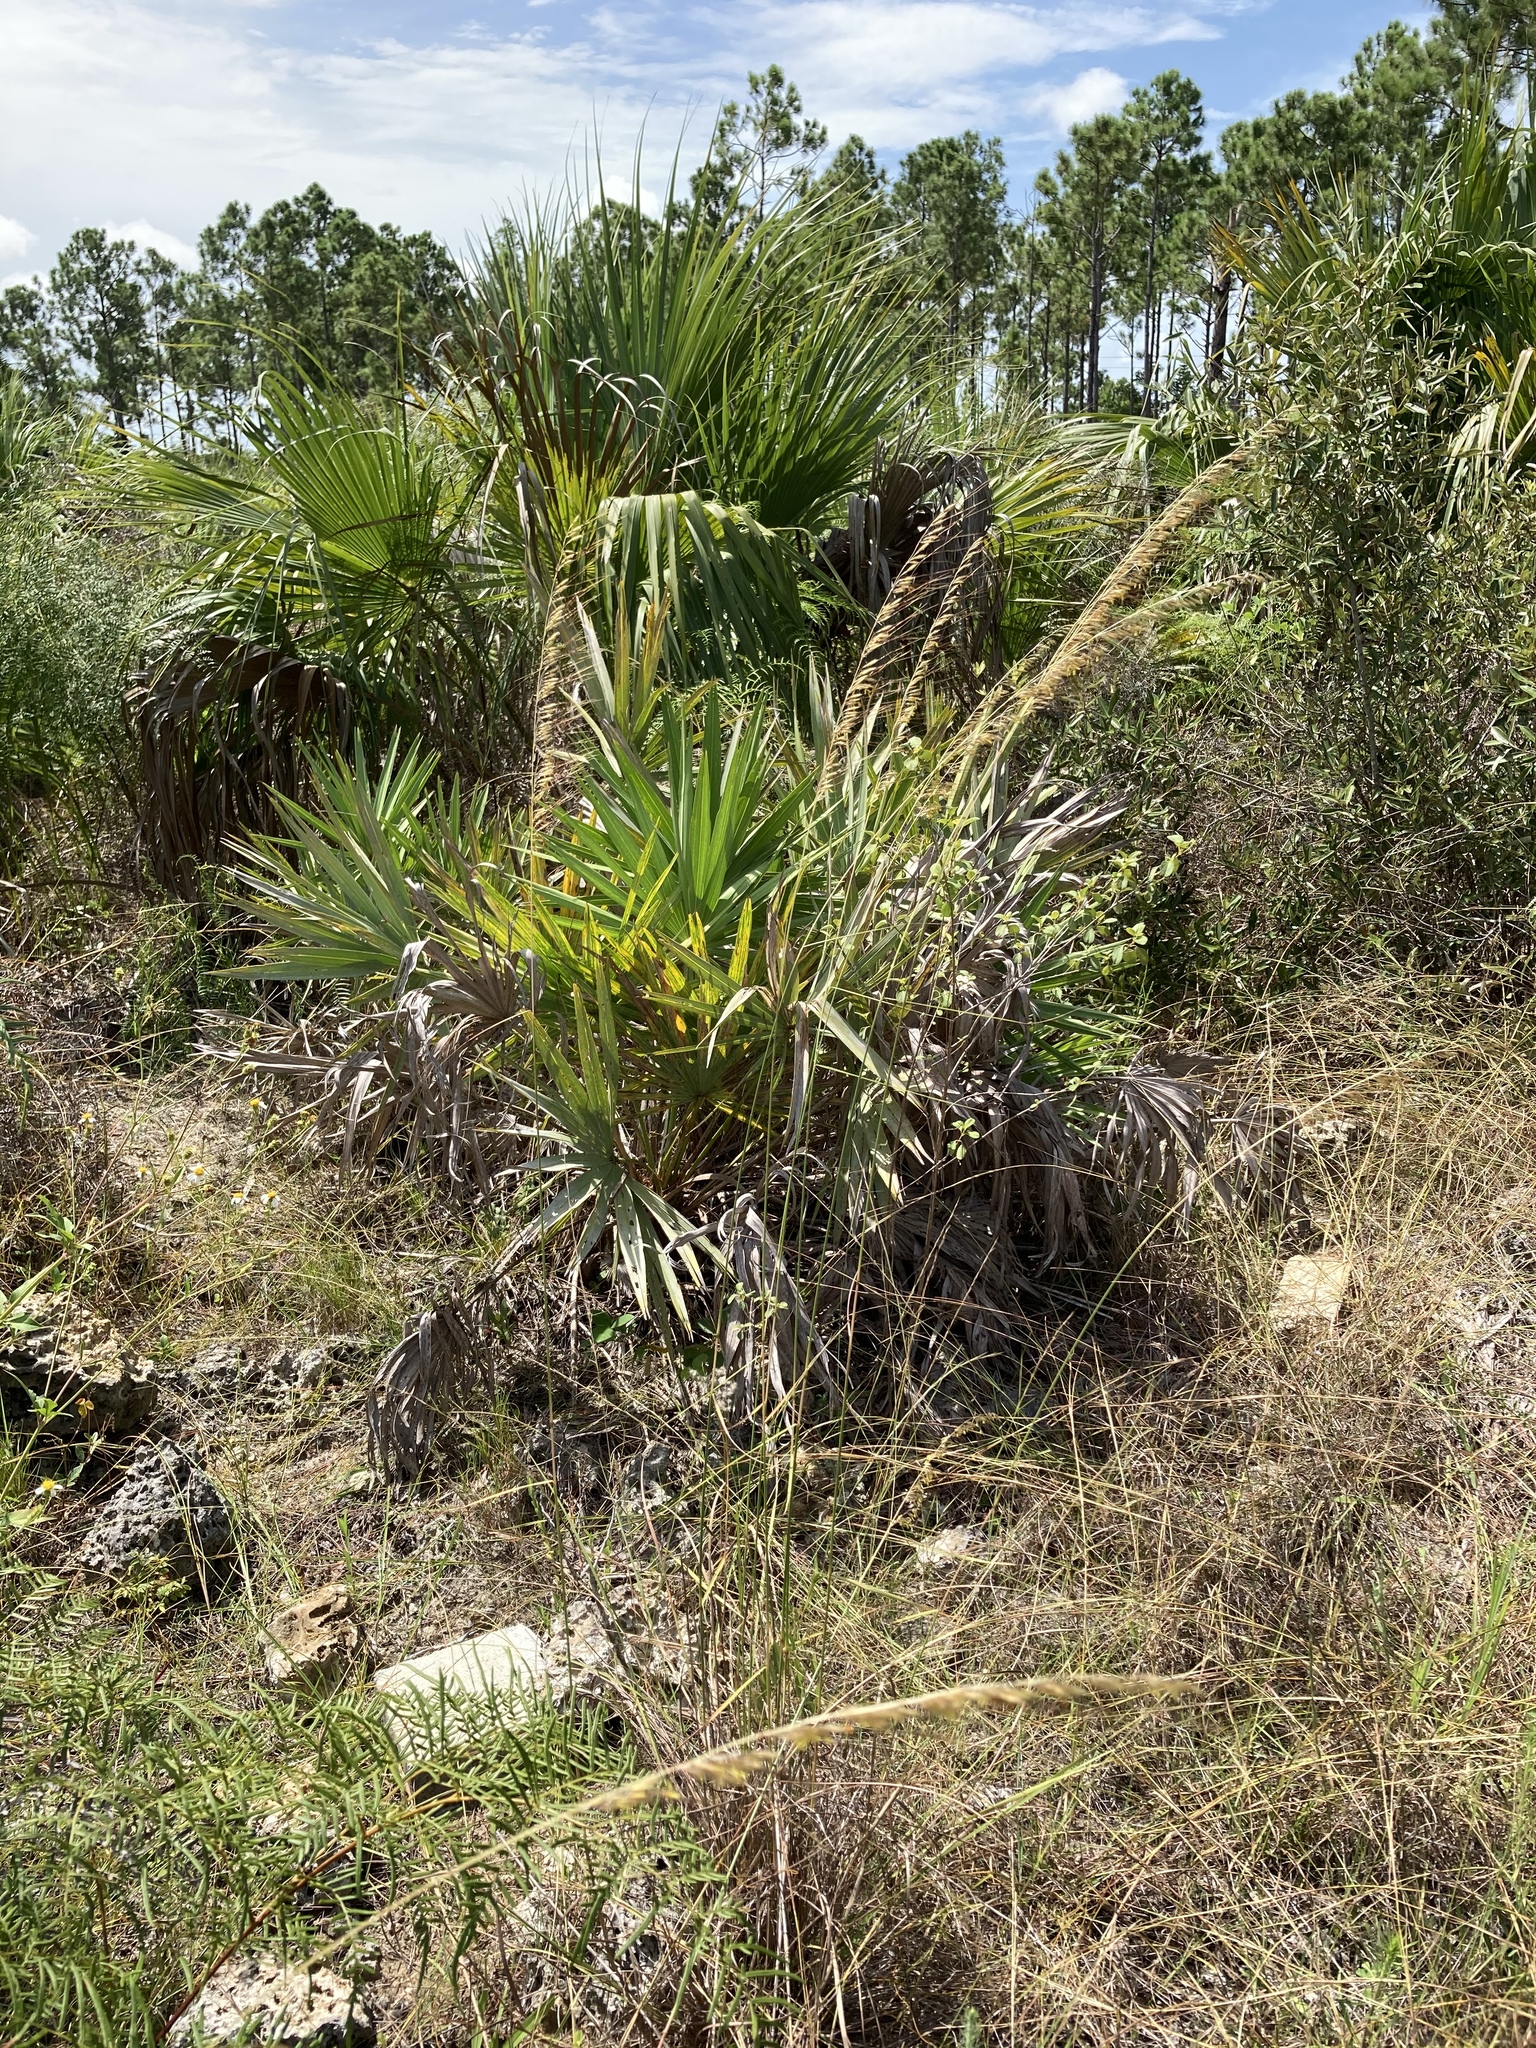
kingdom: Plantae
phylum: Tracheophyta
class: Liliopsida
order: Poales
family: Poaceae
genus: Sorghastrum
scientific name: Sorghastrum secundum
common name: Lopsided indian grass
